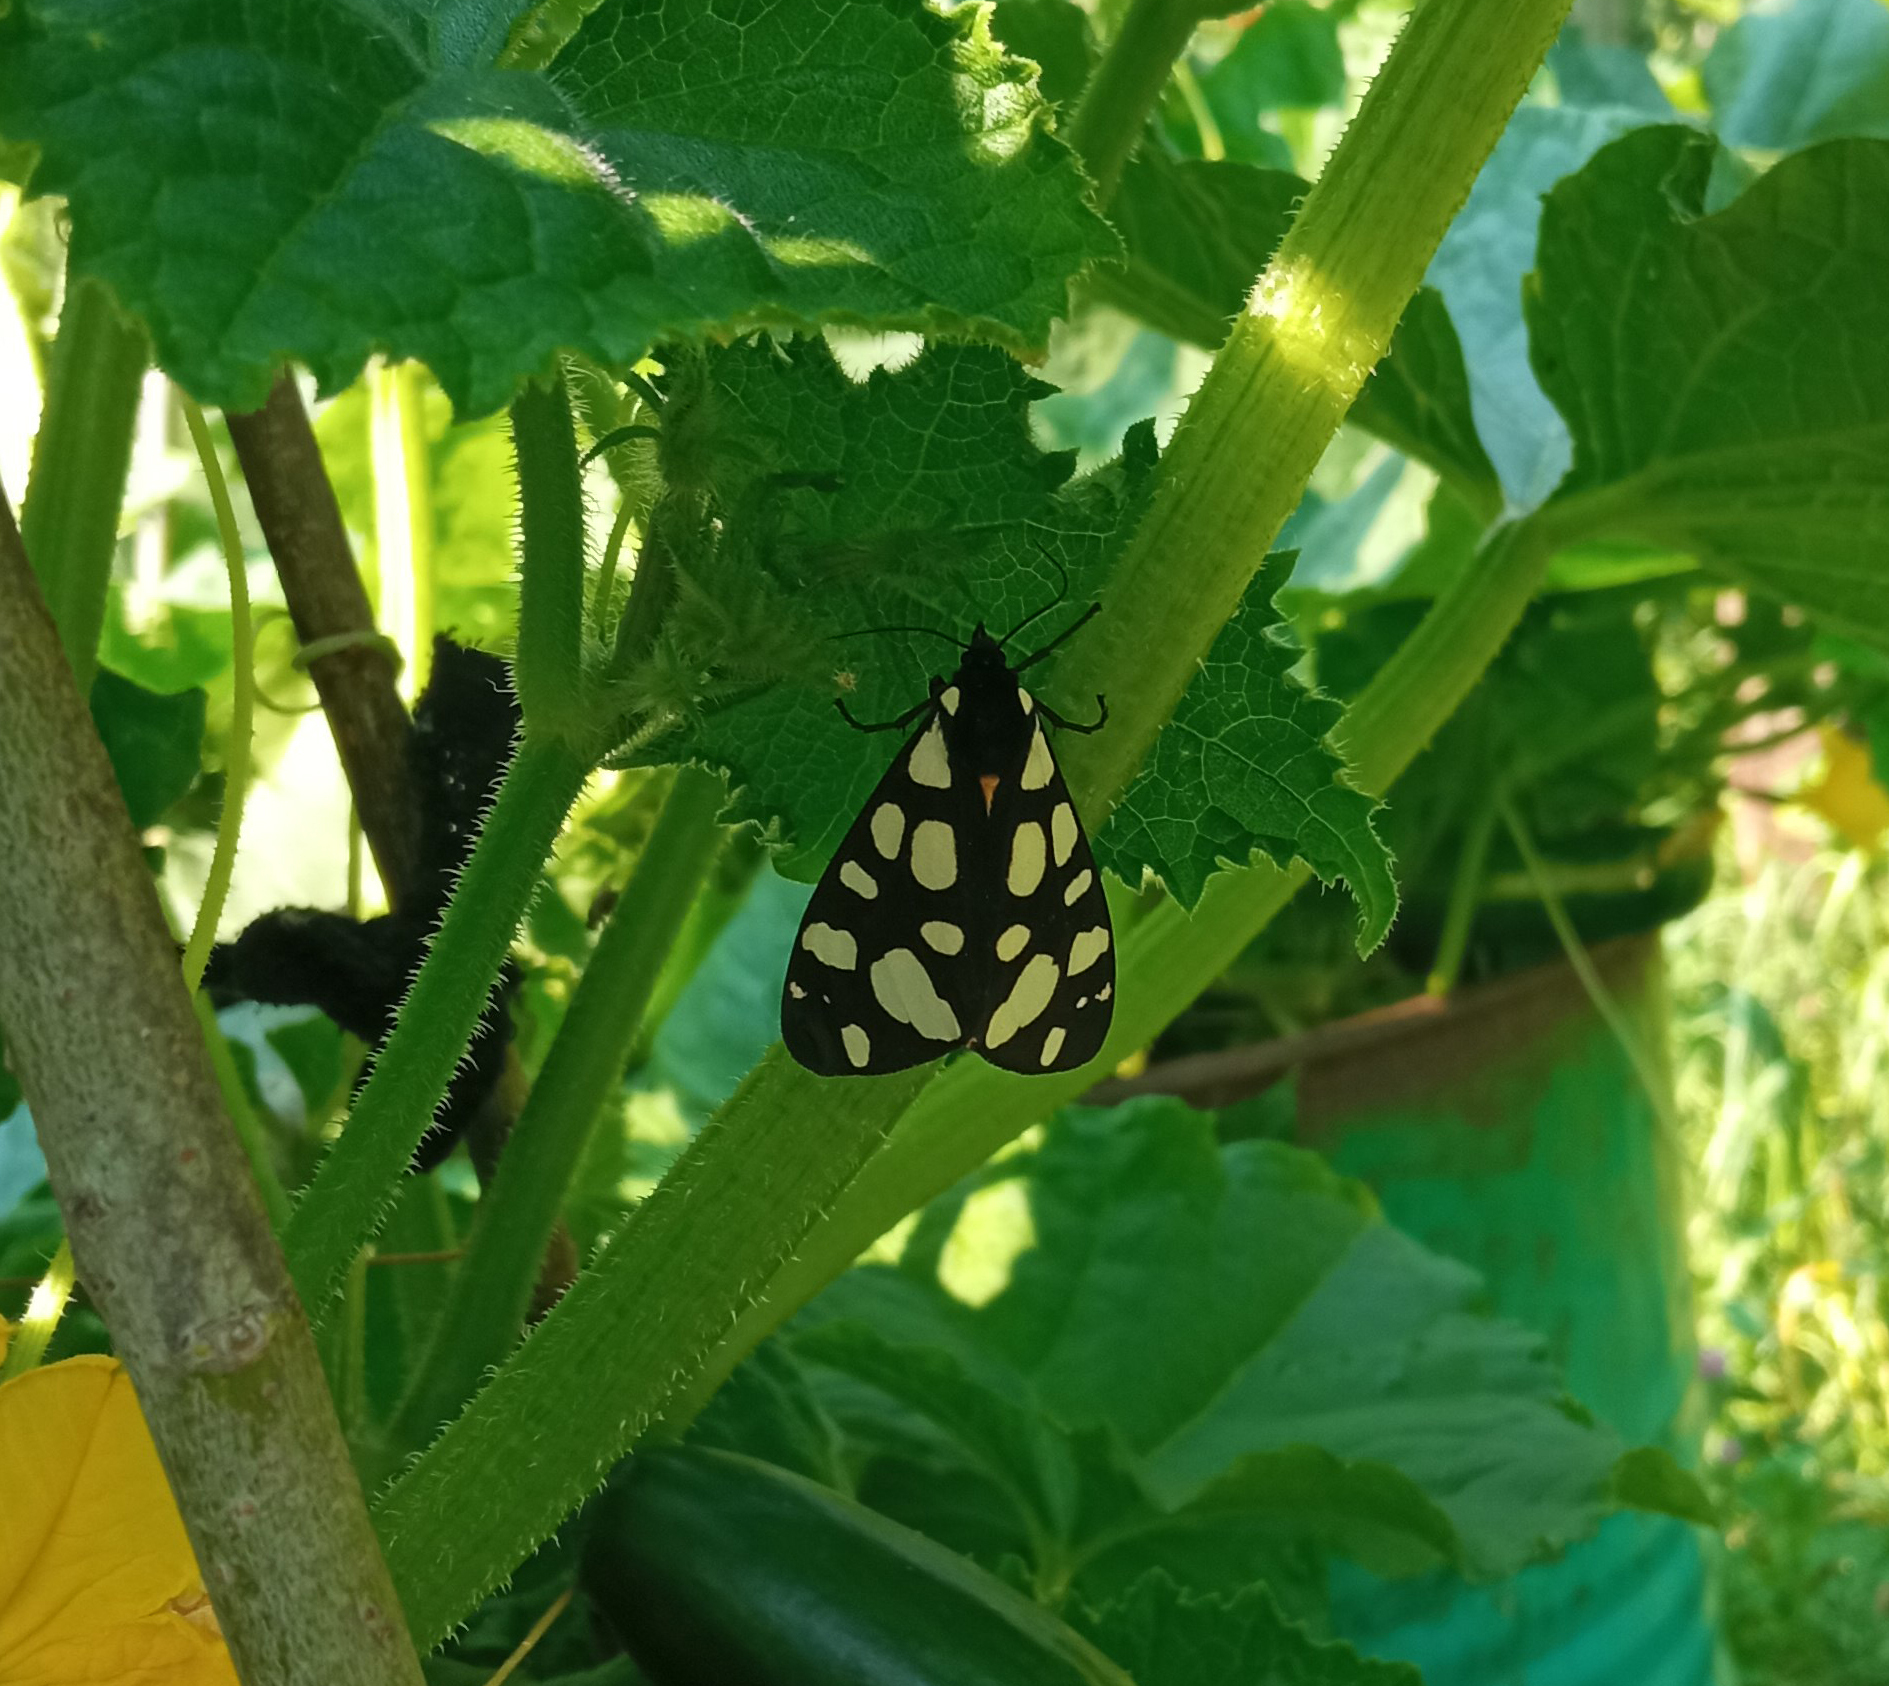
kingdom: Animalia
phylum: Arthropoda
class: Insecta
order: Lepidoptera
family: Erebidae
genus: Epicallia
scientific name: Epicallia villica
